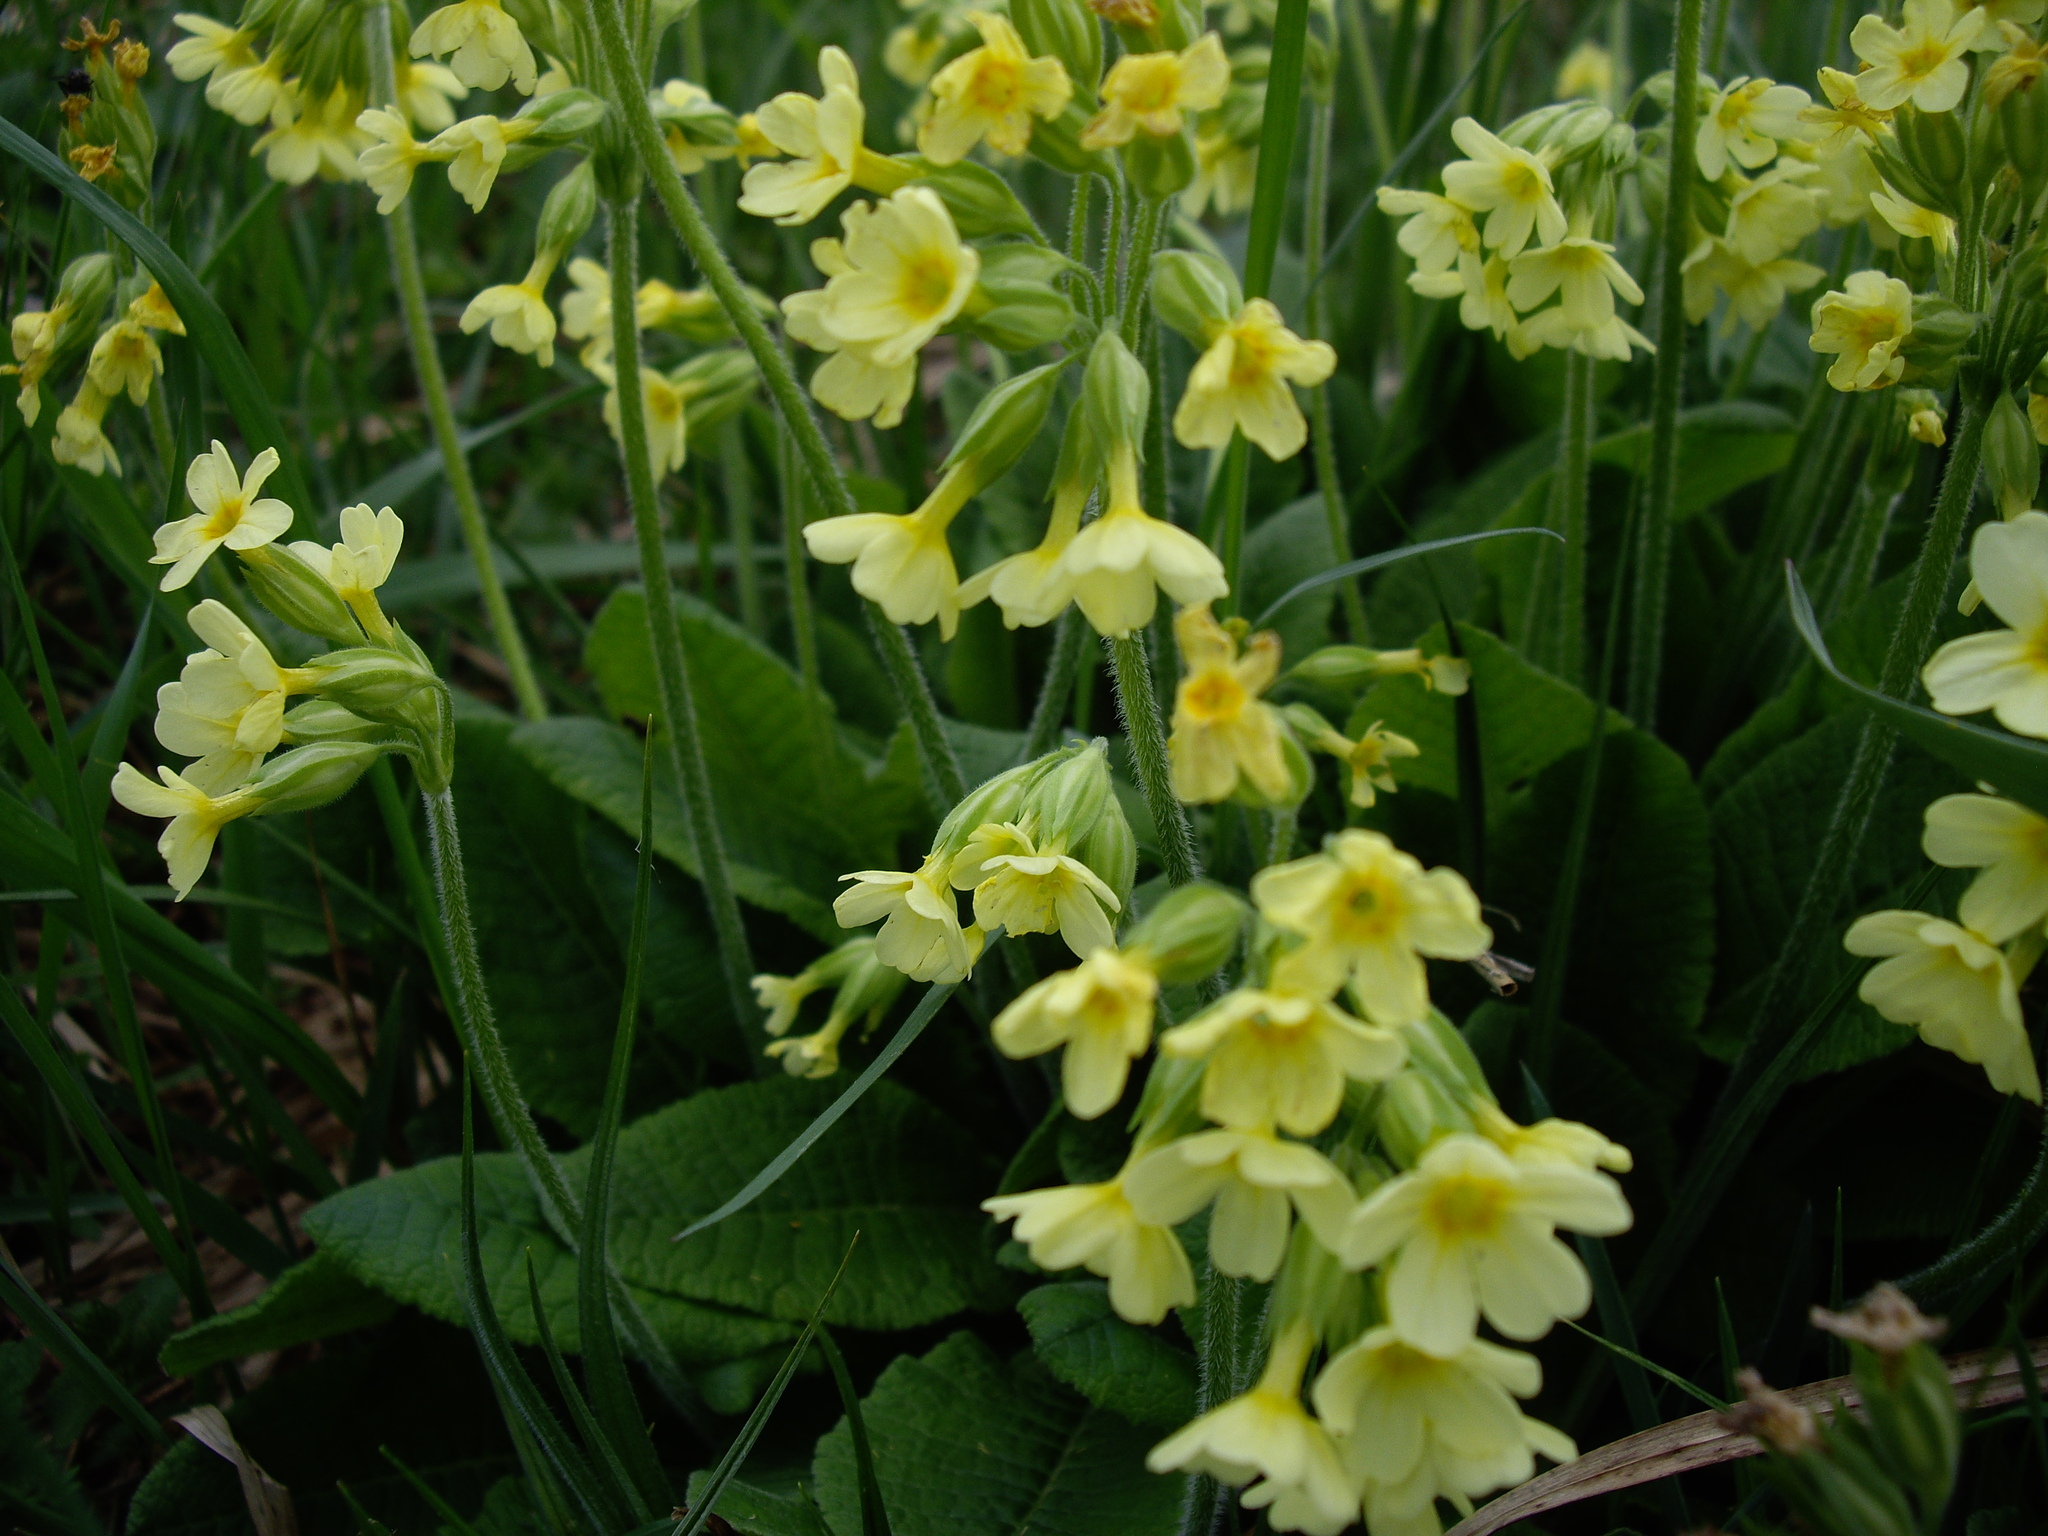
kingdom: Plantae
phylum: Tracheophyta
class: Magnoliopsida
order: Ericales
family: Primulaceae
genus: Primula
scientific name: Primula elatior
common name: Oxlip
